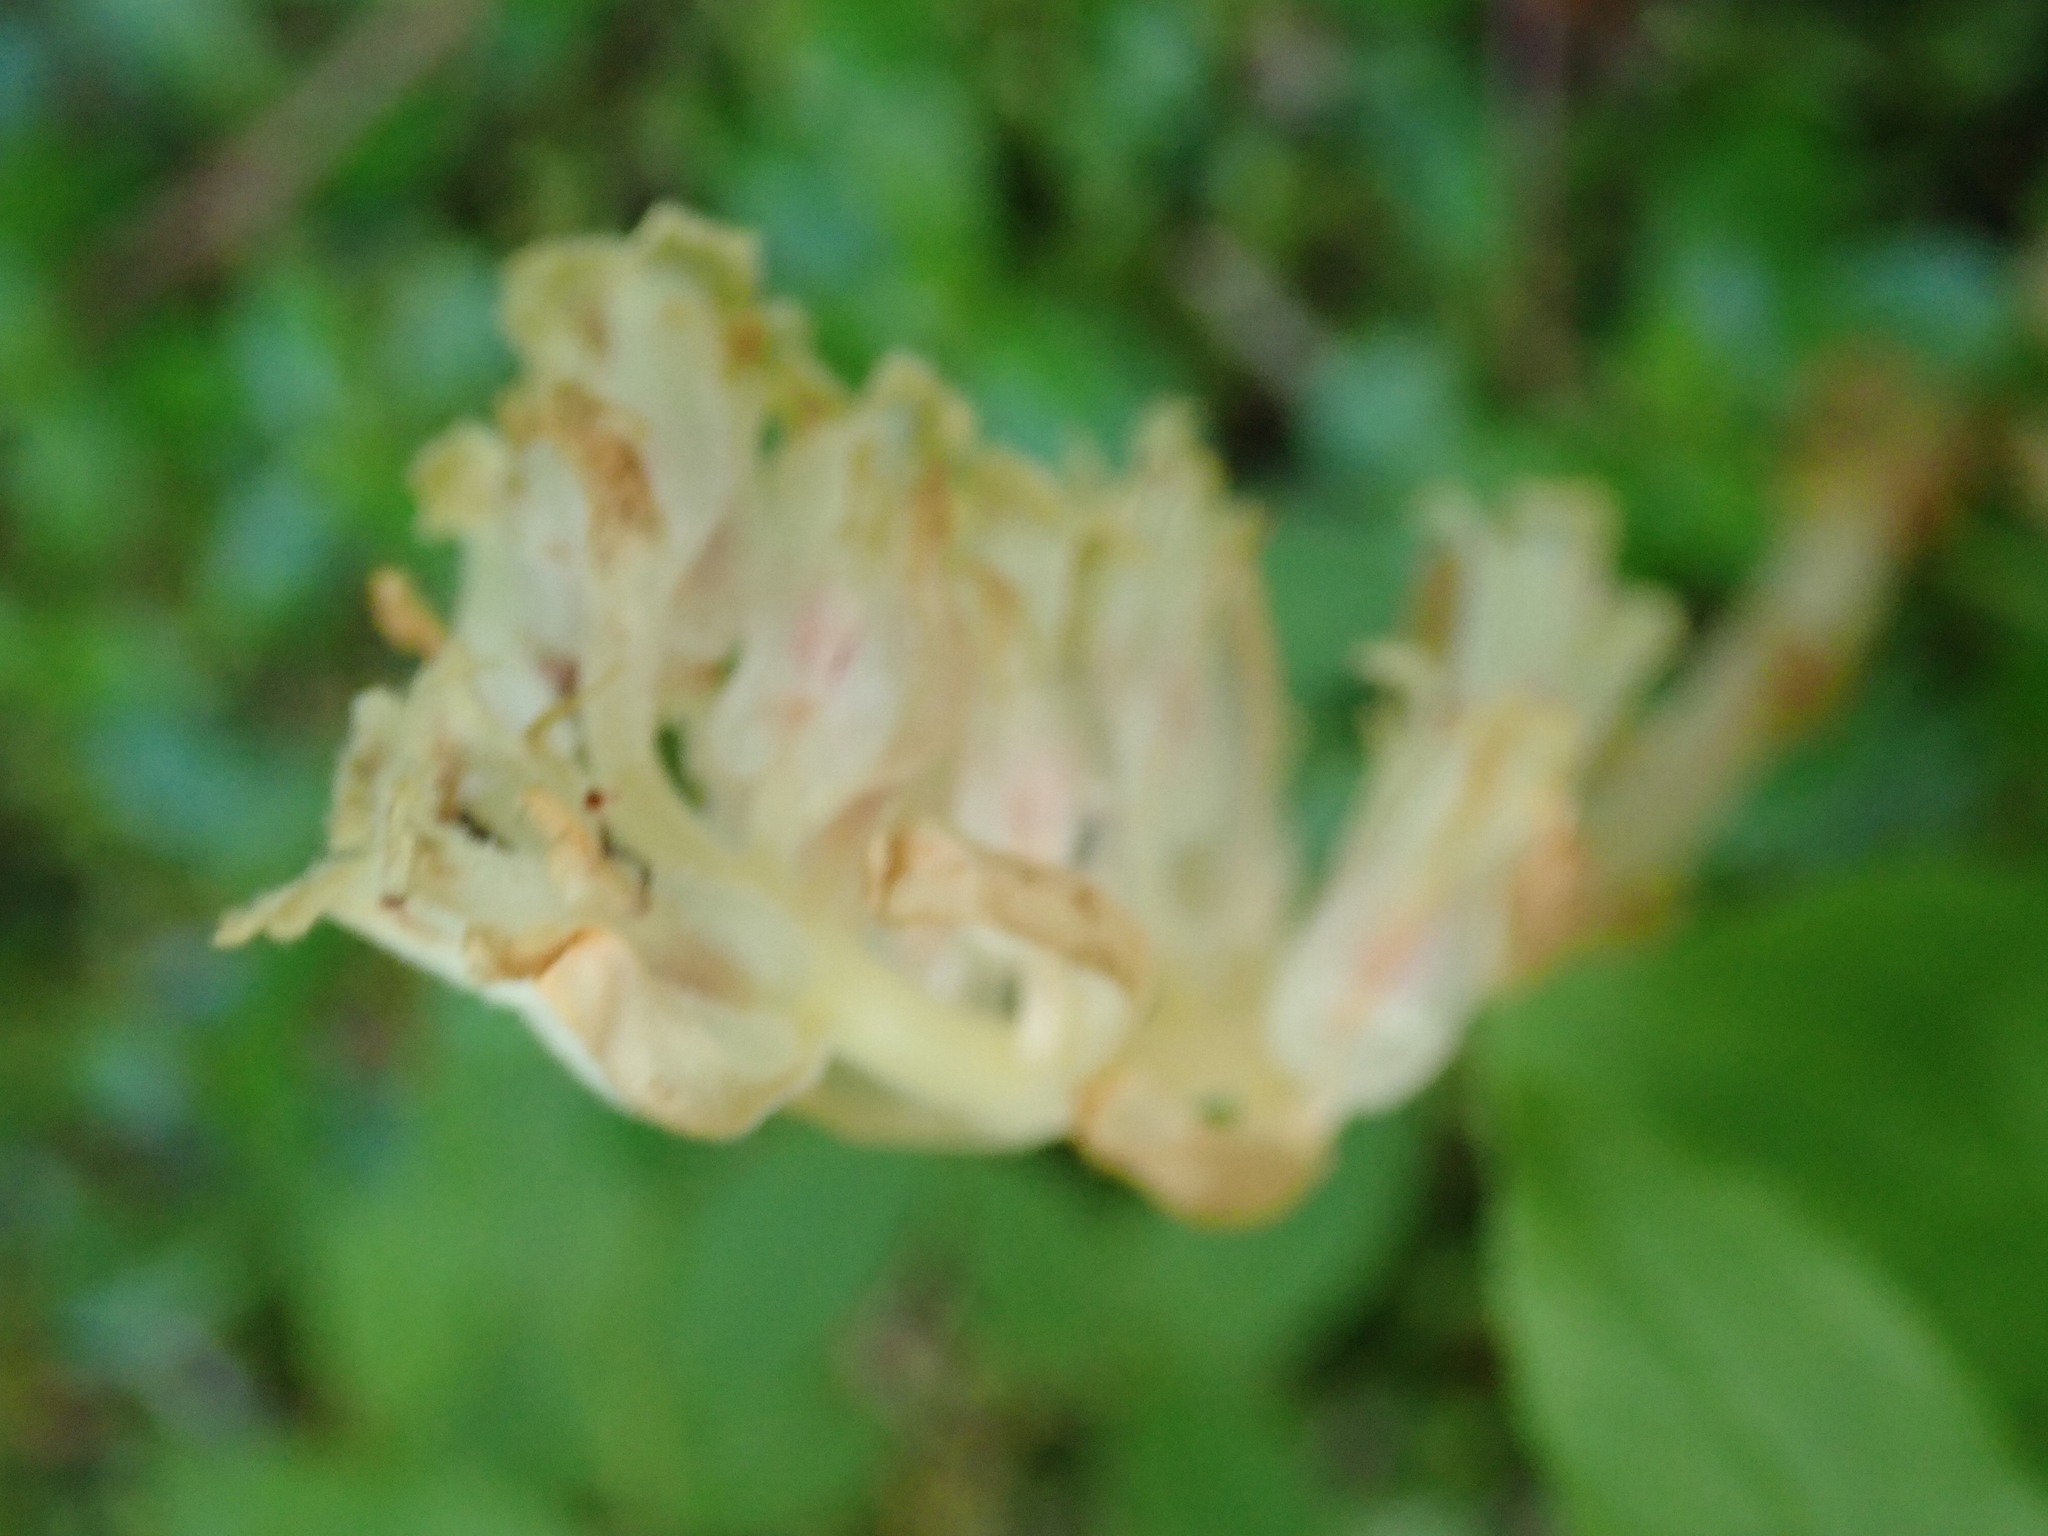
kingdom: Plantae
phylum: Tracheophyta
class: Magnoliopsida
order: Ericales
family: Ericaceae
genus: Hypopitys
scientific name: Hypopitys monotropa
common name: Yellow bird's-nest
